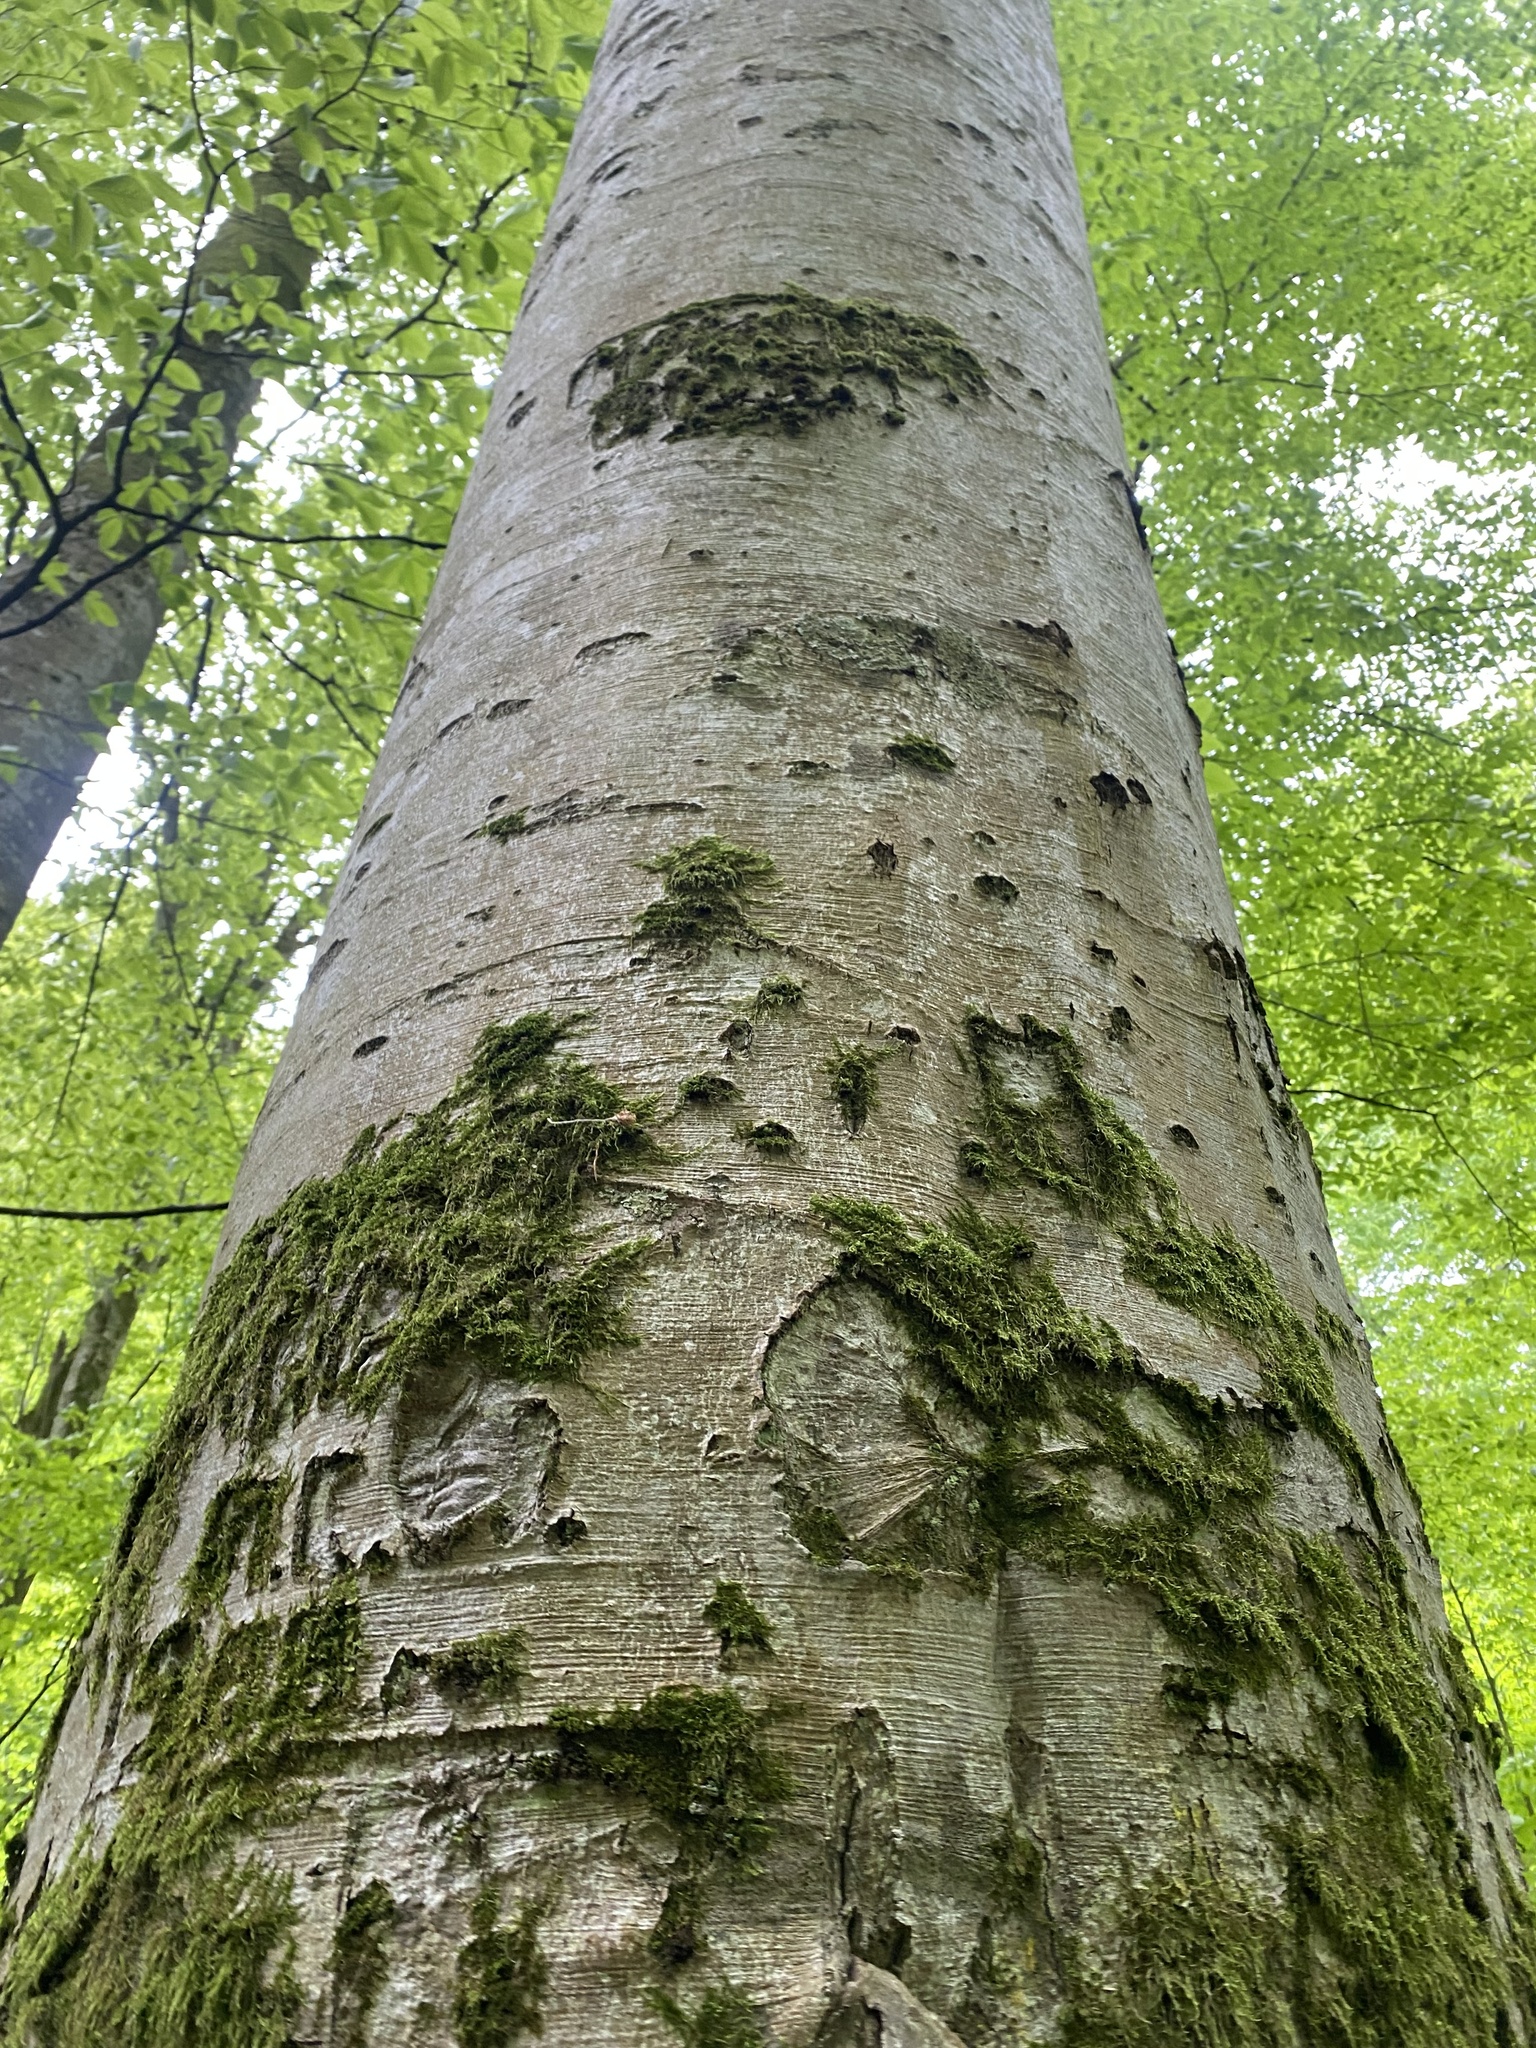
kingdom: Plantae
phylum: Tracheophyta
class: Magnoliopsida
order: Fagales
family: Fagaceae
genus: Fagus
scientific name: Fagus orientalis
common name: Oriental beech
